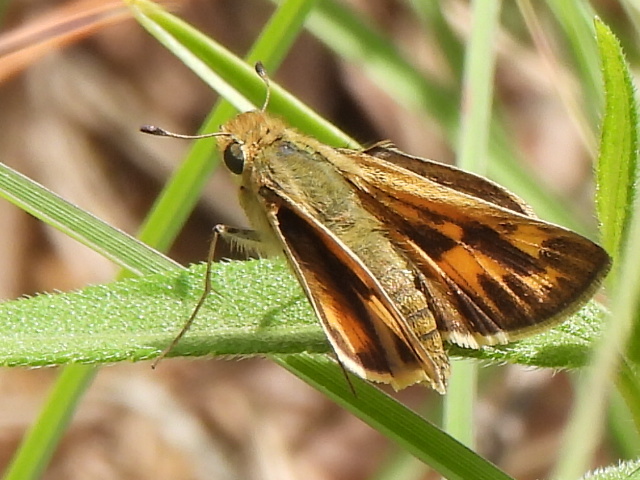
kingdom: Animalia
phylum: Arthropoda
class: Insecta
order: Lepidoptera
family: Hesperiidae
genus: Hylephila
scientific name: Hylephila phyleus
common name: Fiery skipper
